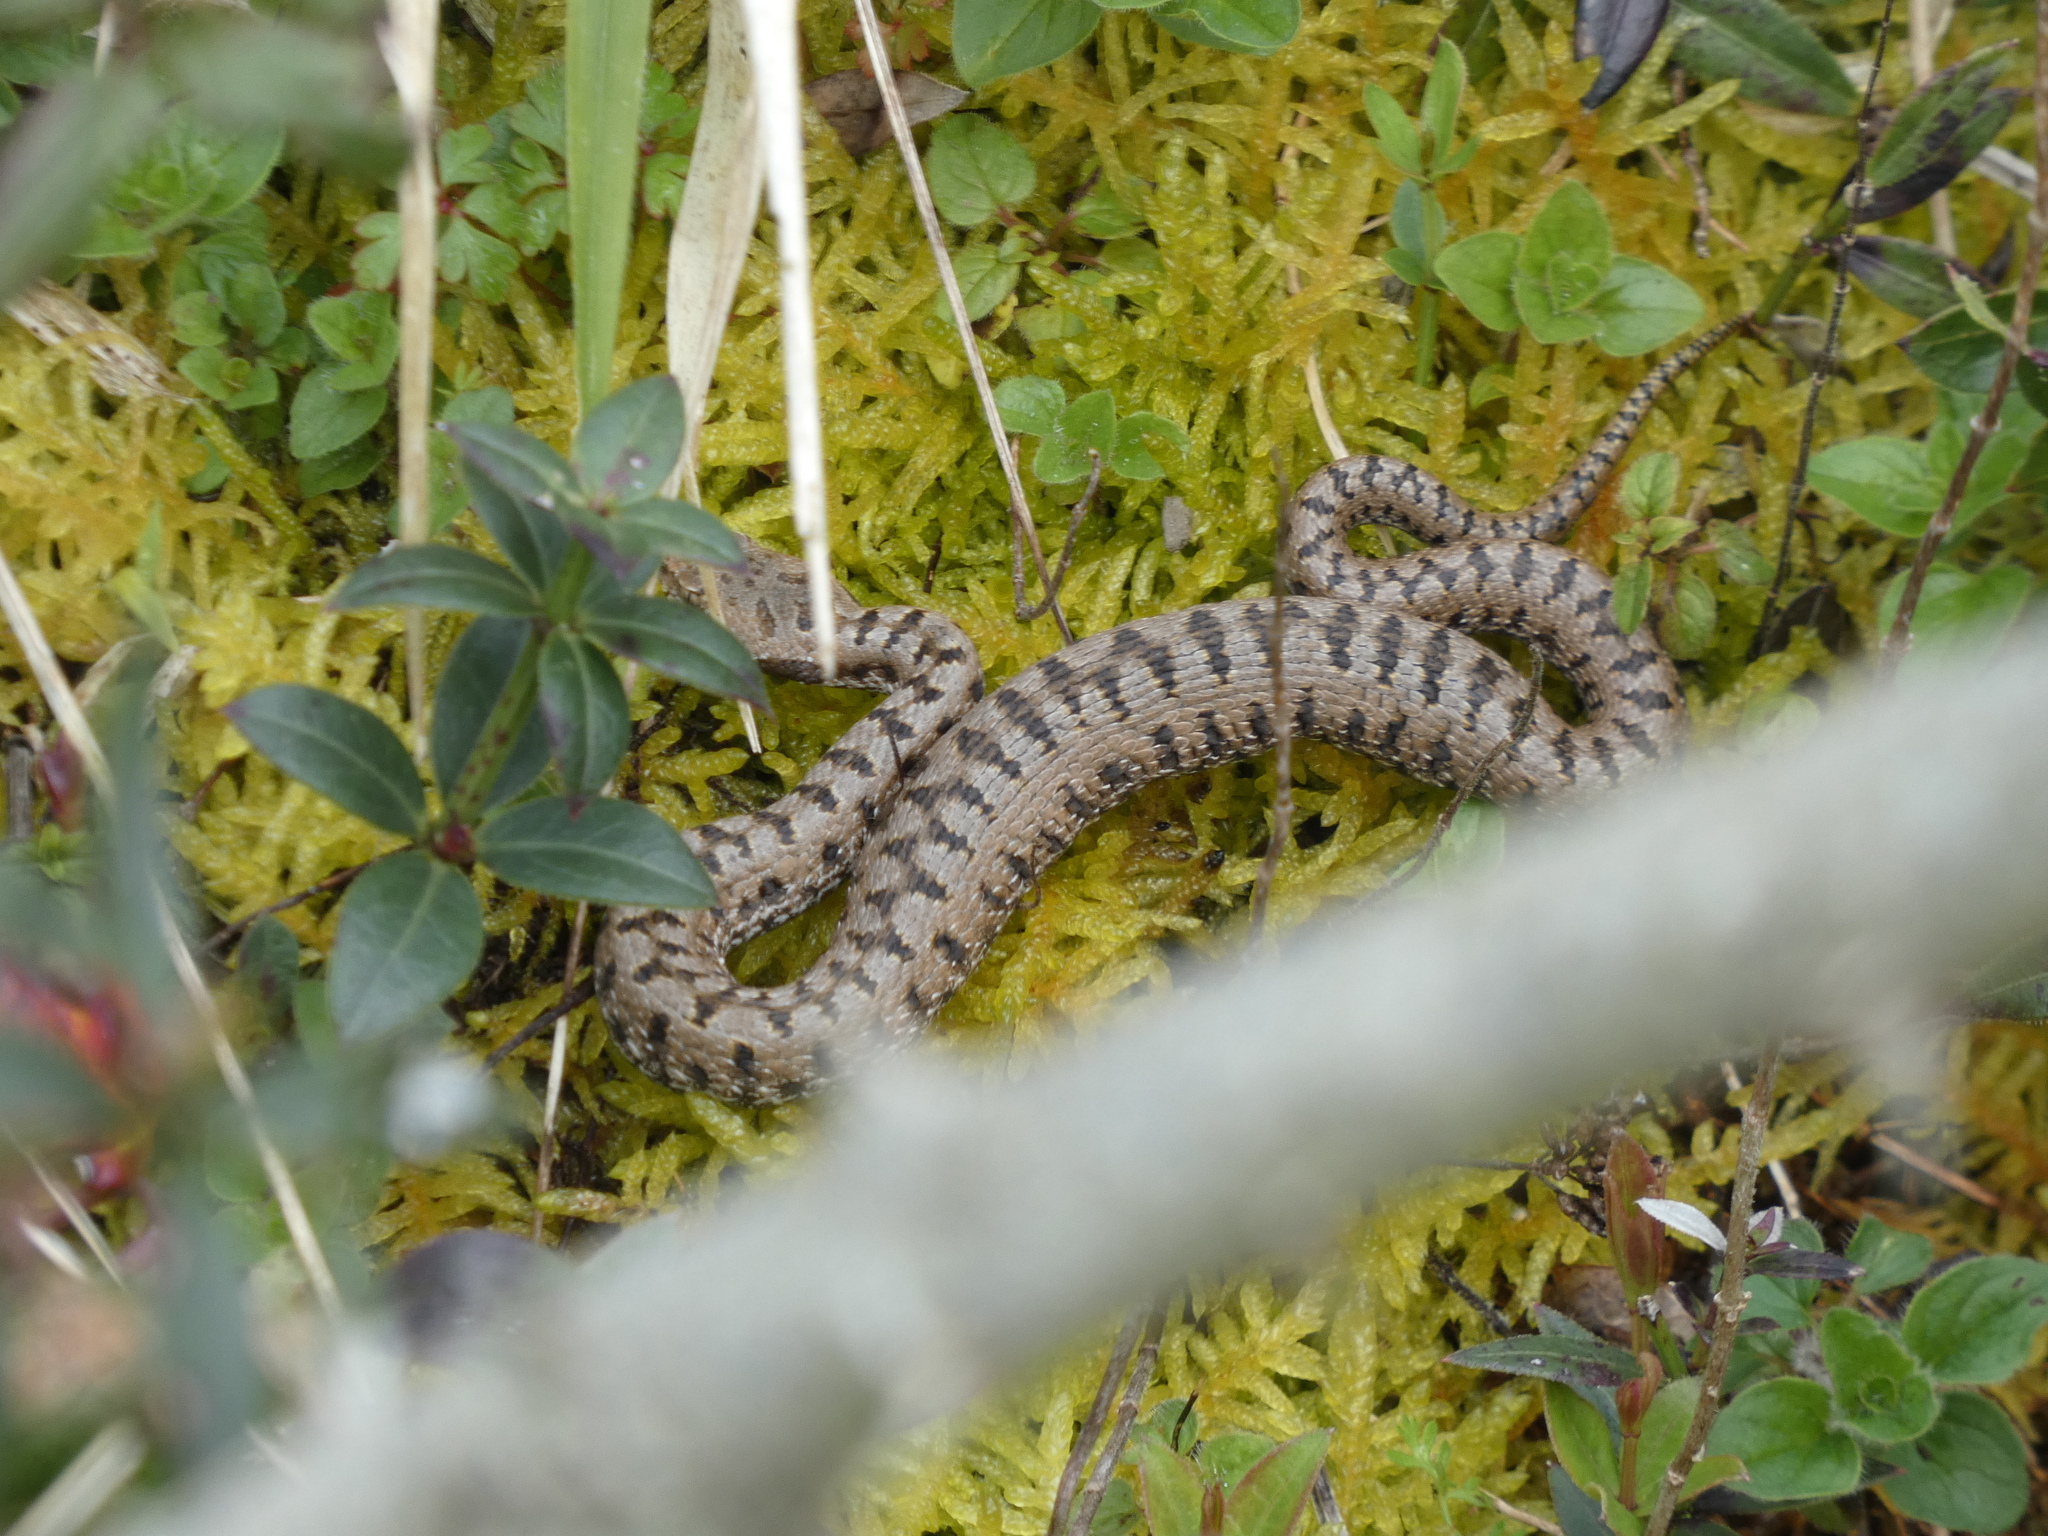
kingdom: Animalia
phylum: Chordata
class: Squamata
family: Viperidae
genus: Vipera
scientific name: Vipera aspis
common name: Asp viper
